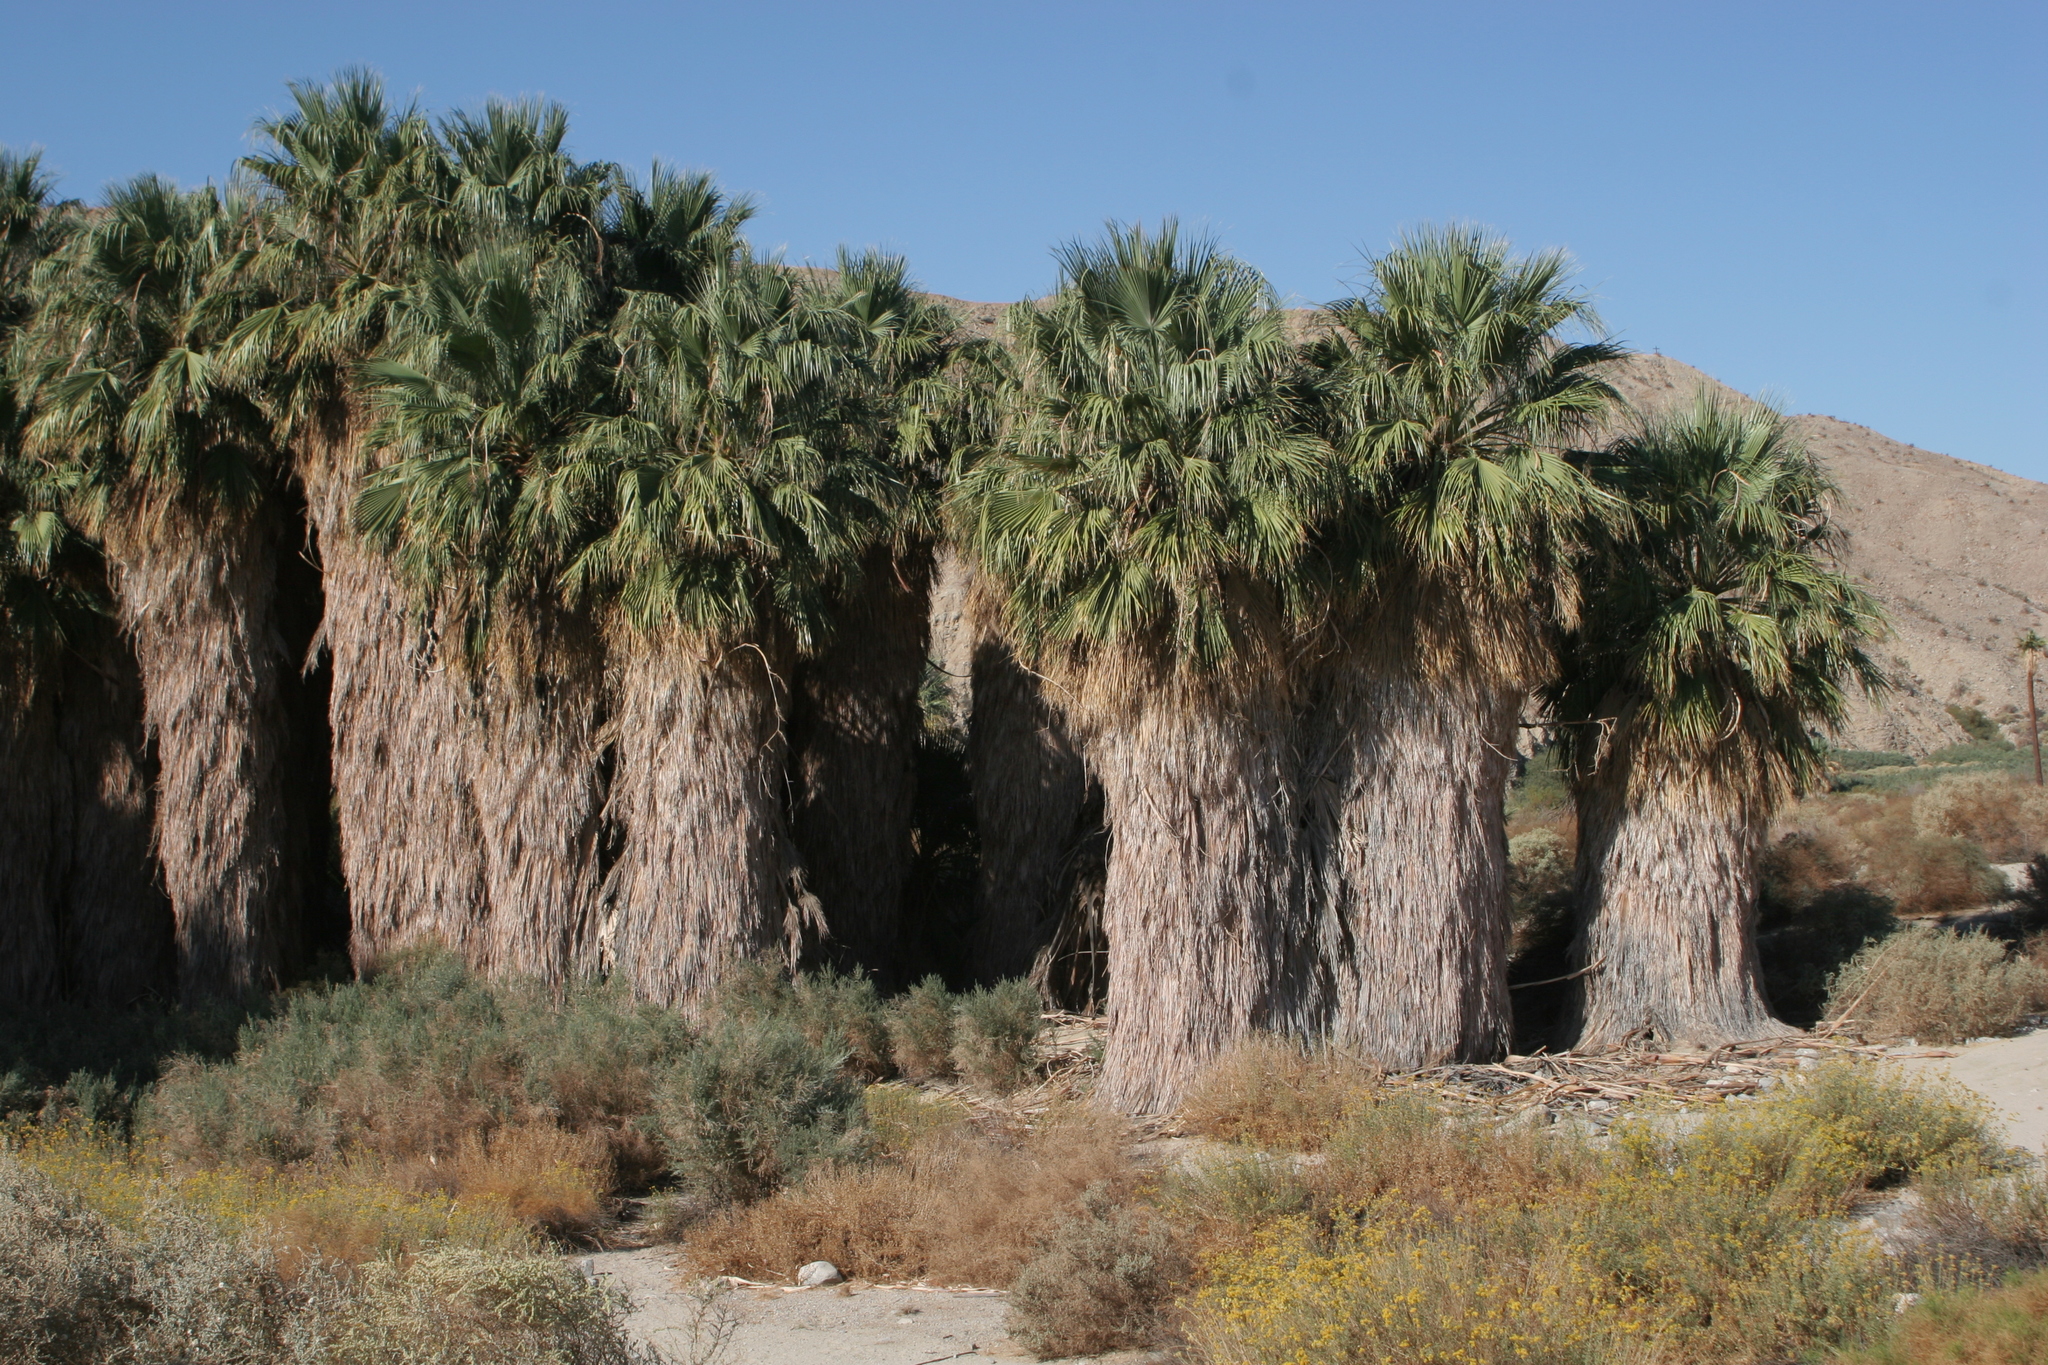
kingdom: Plantae
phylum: Tracheophyta
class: Liliopsida
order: Arecales
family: Arecaceae
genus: Washingtonia
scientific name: Washingtonia filifera
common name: California fan palm
